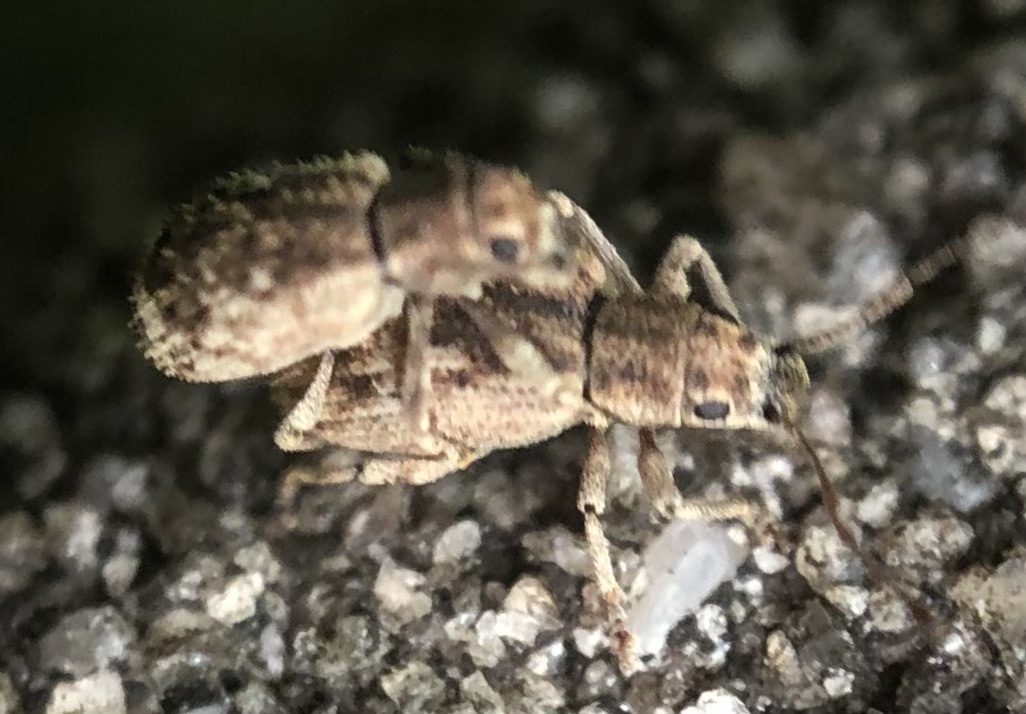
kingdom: Animalia
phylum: Arthropoda
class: Insecta
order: Coleoptera
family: Curculionidae
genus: Pseudoedophrys
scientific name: Pseudoedophrys hilleri
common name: Weevil
